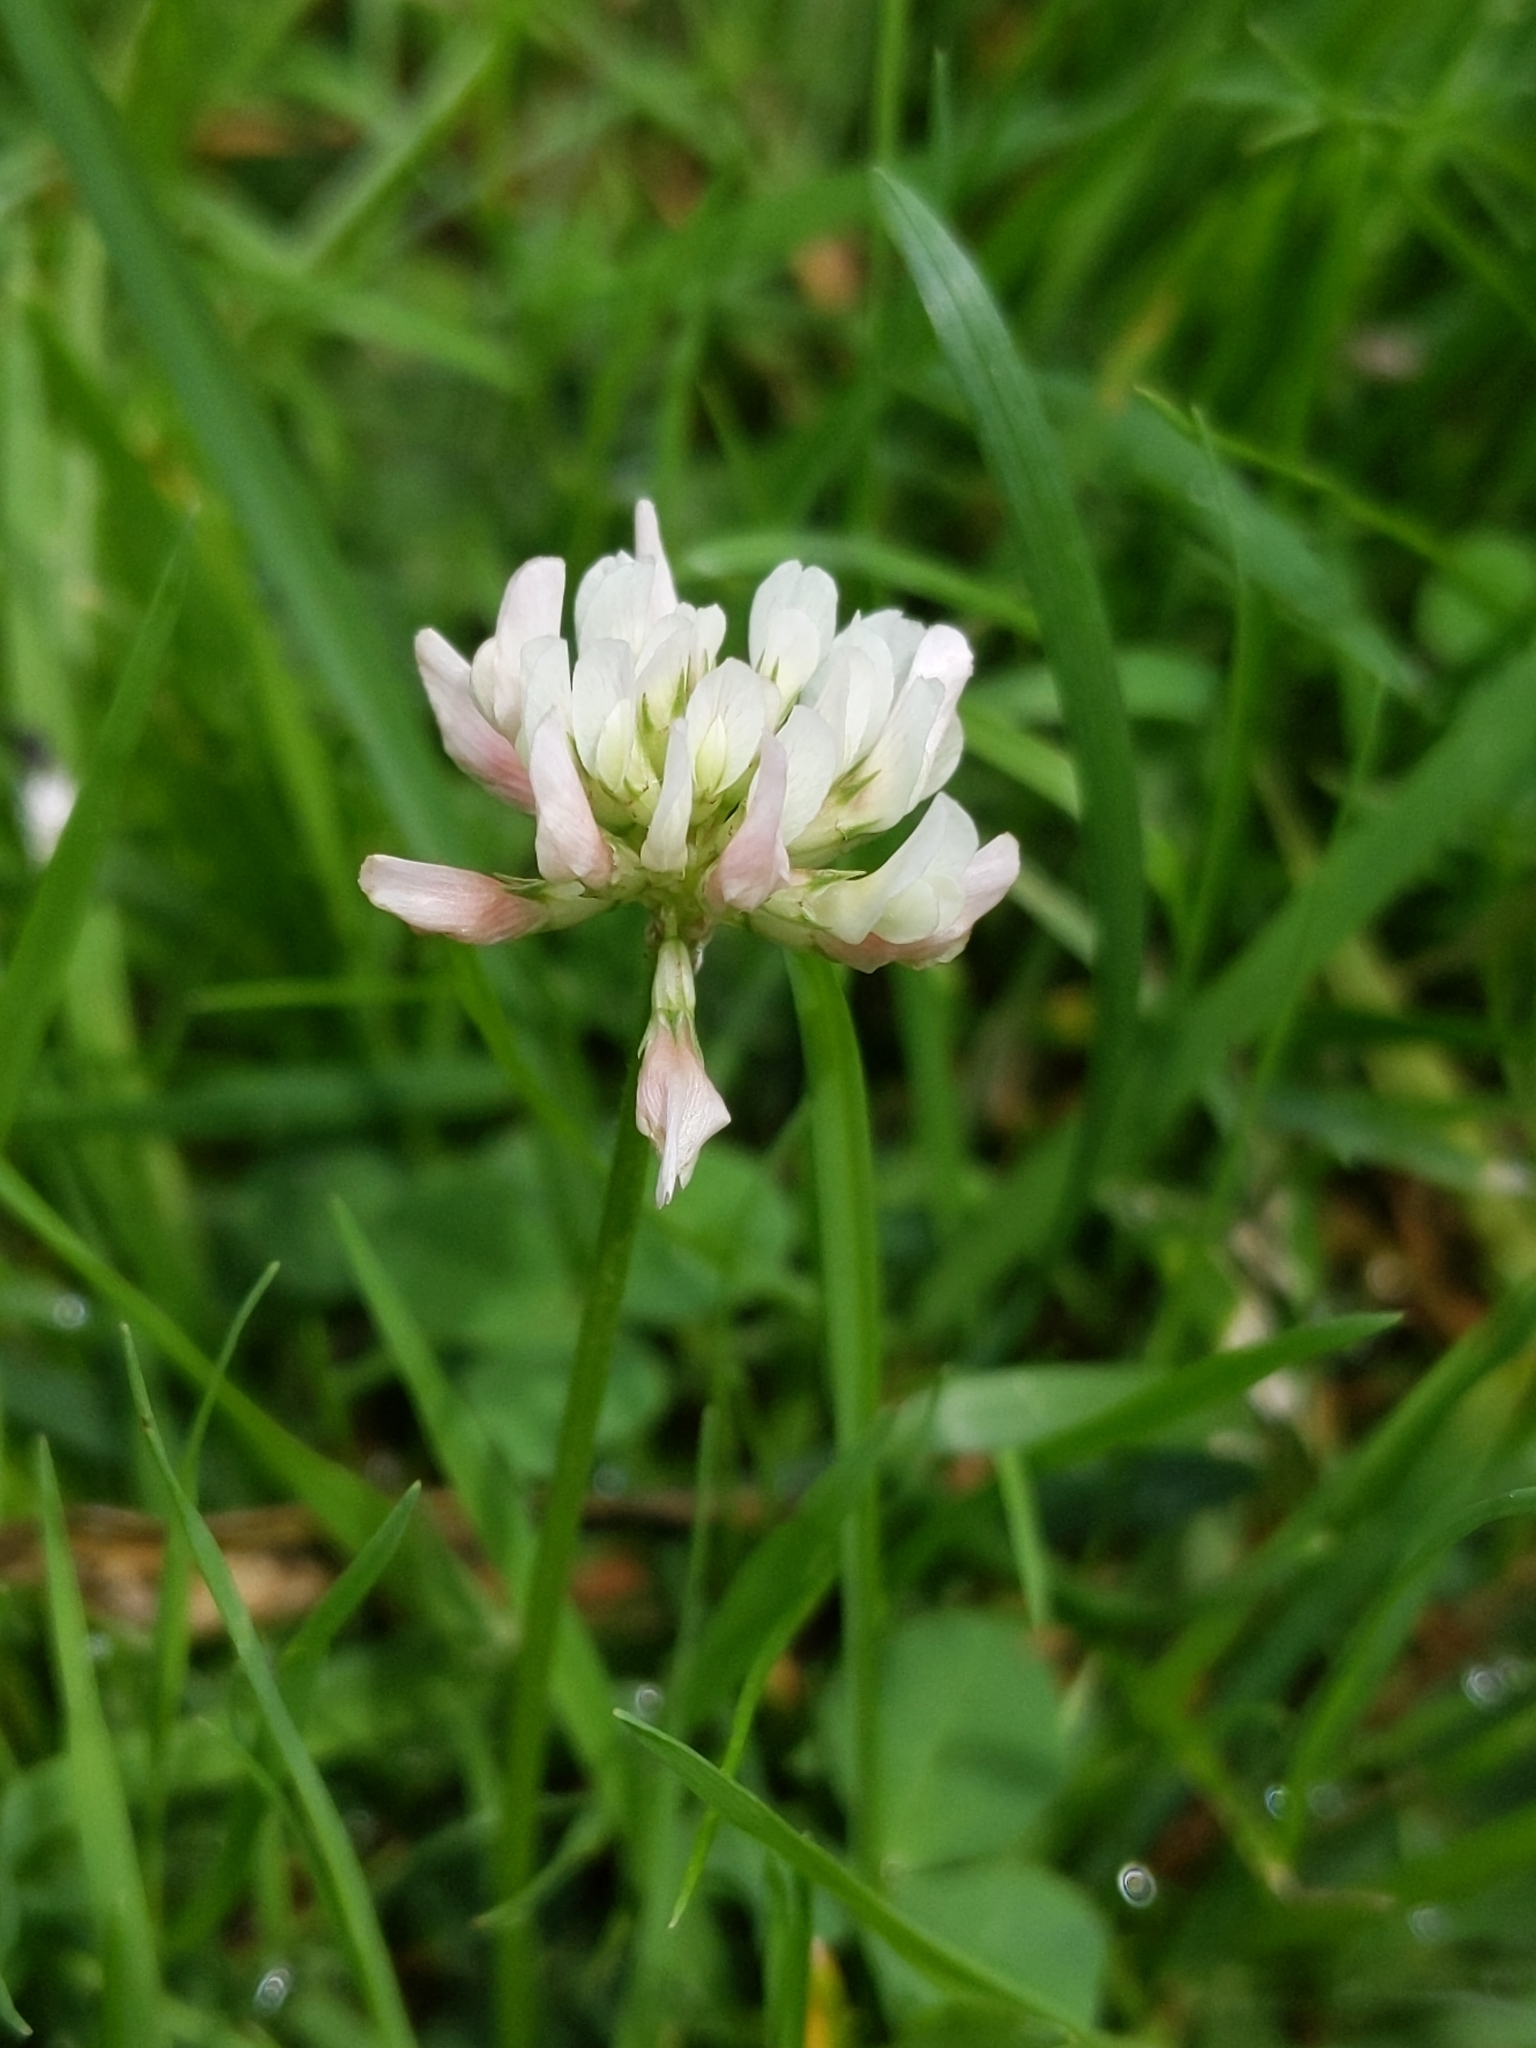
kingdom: Plantae
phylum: Tracheophyta
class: Magnoliopsida
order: Fabales
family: Fabaceae
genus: Trifolium
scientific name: Trifolium repens
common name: White clover
